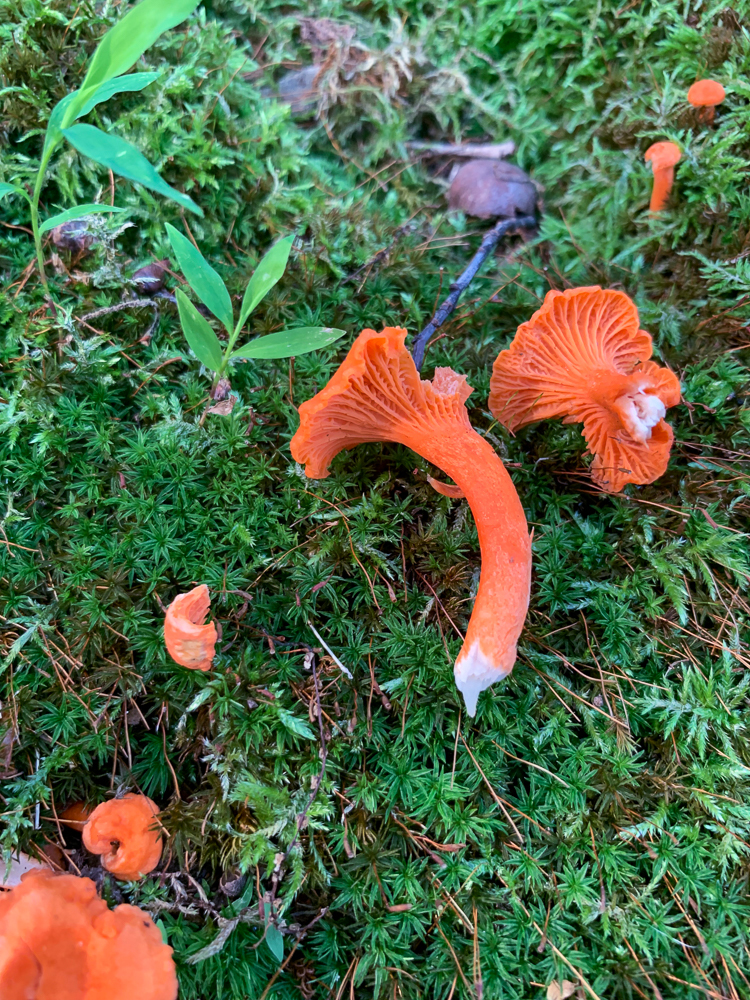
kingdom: Fungi
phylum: Basidiomycota
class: Agaricomycetes
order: Cantharellales
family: Hydnaceae
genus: Cantharellus
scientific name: Cantharellus cinnabarinus
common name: Cinnabar chanterelle
